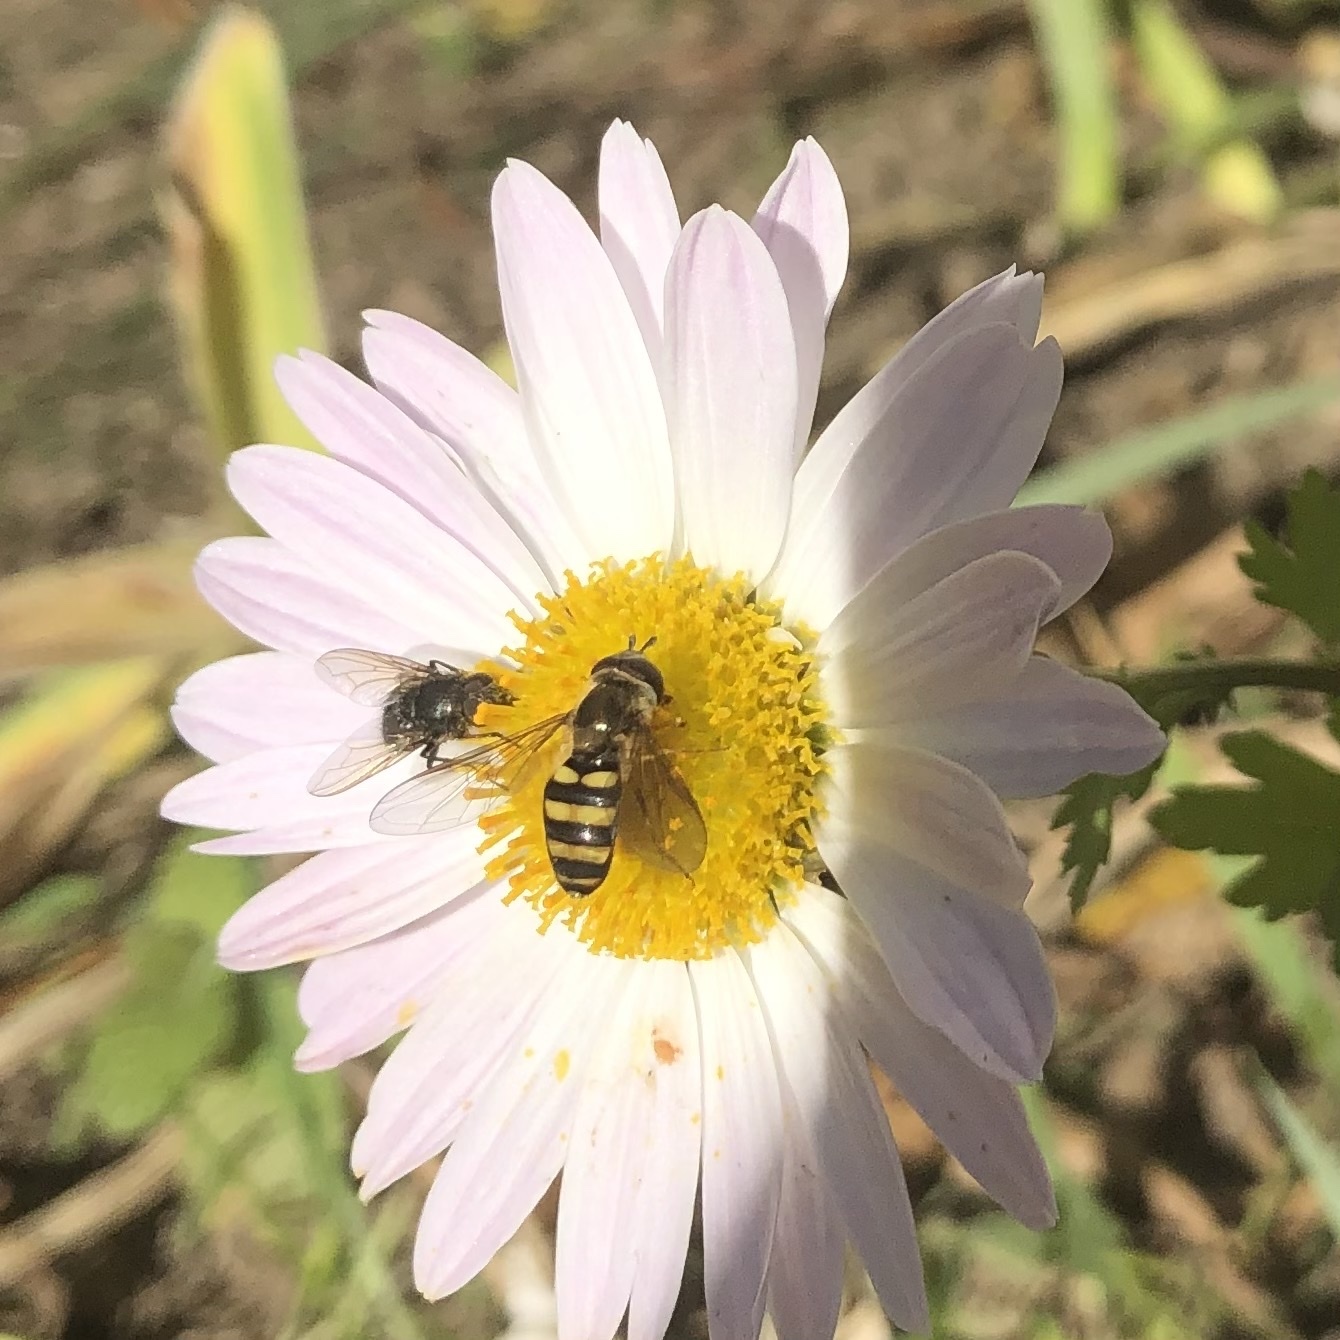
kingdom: Animalia
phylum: Arthropoda
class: Insecta
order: Diptera
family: Syrphidae
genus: Eupeodes
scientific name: Eupeodes
